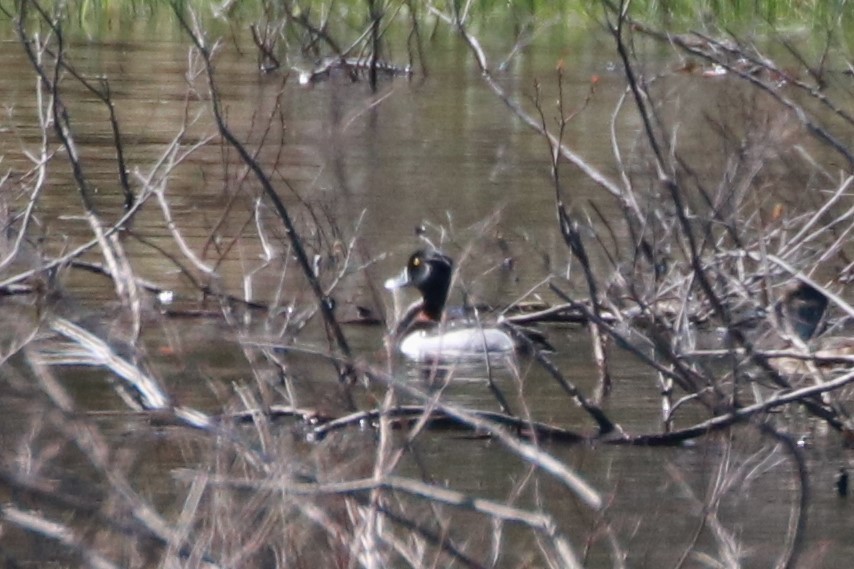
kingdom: Animalia
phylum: Chordata
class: Aves
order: Anseriformes
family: Anatidae
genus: Aythya
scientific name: Aythya collaris
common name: Ring-necked duck
